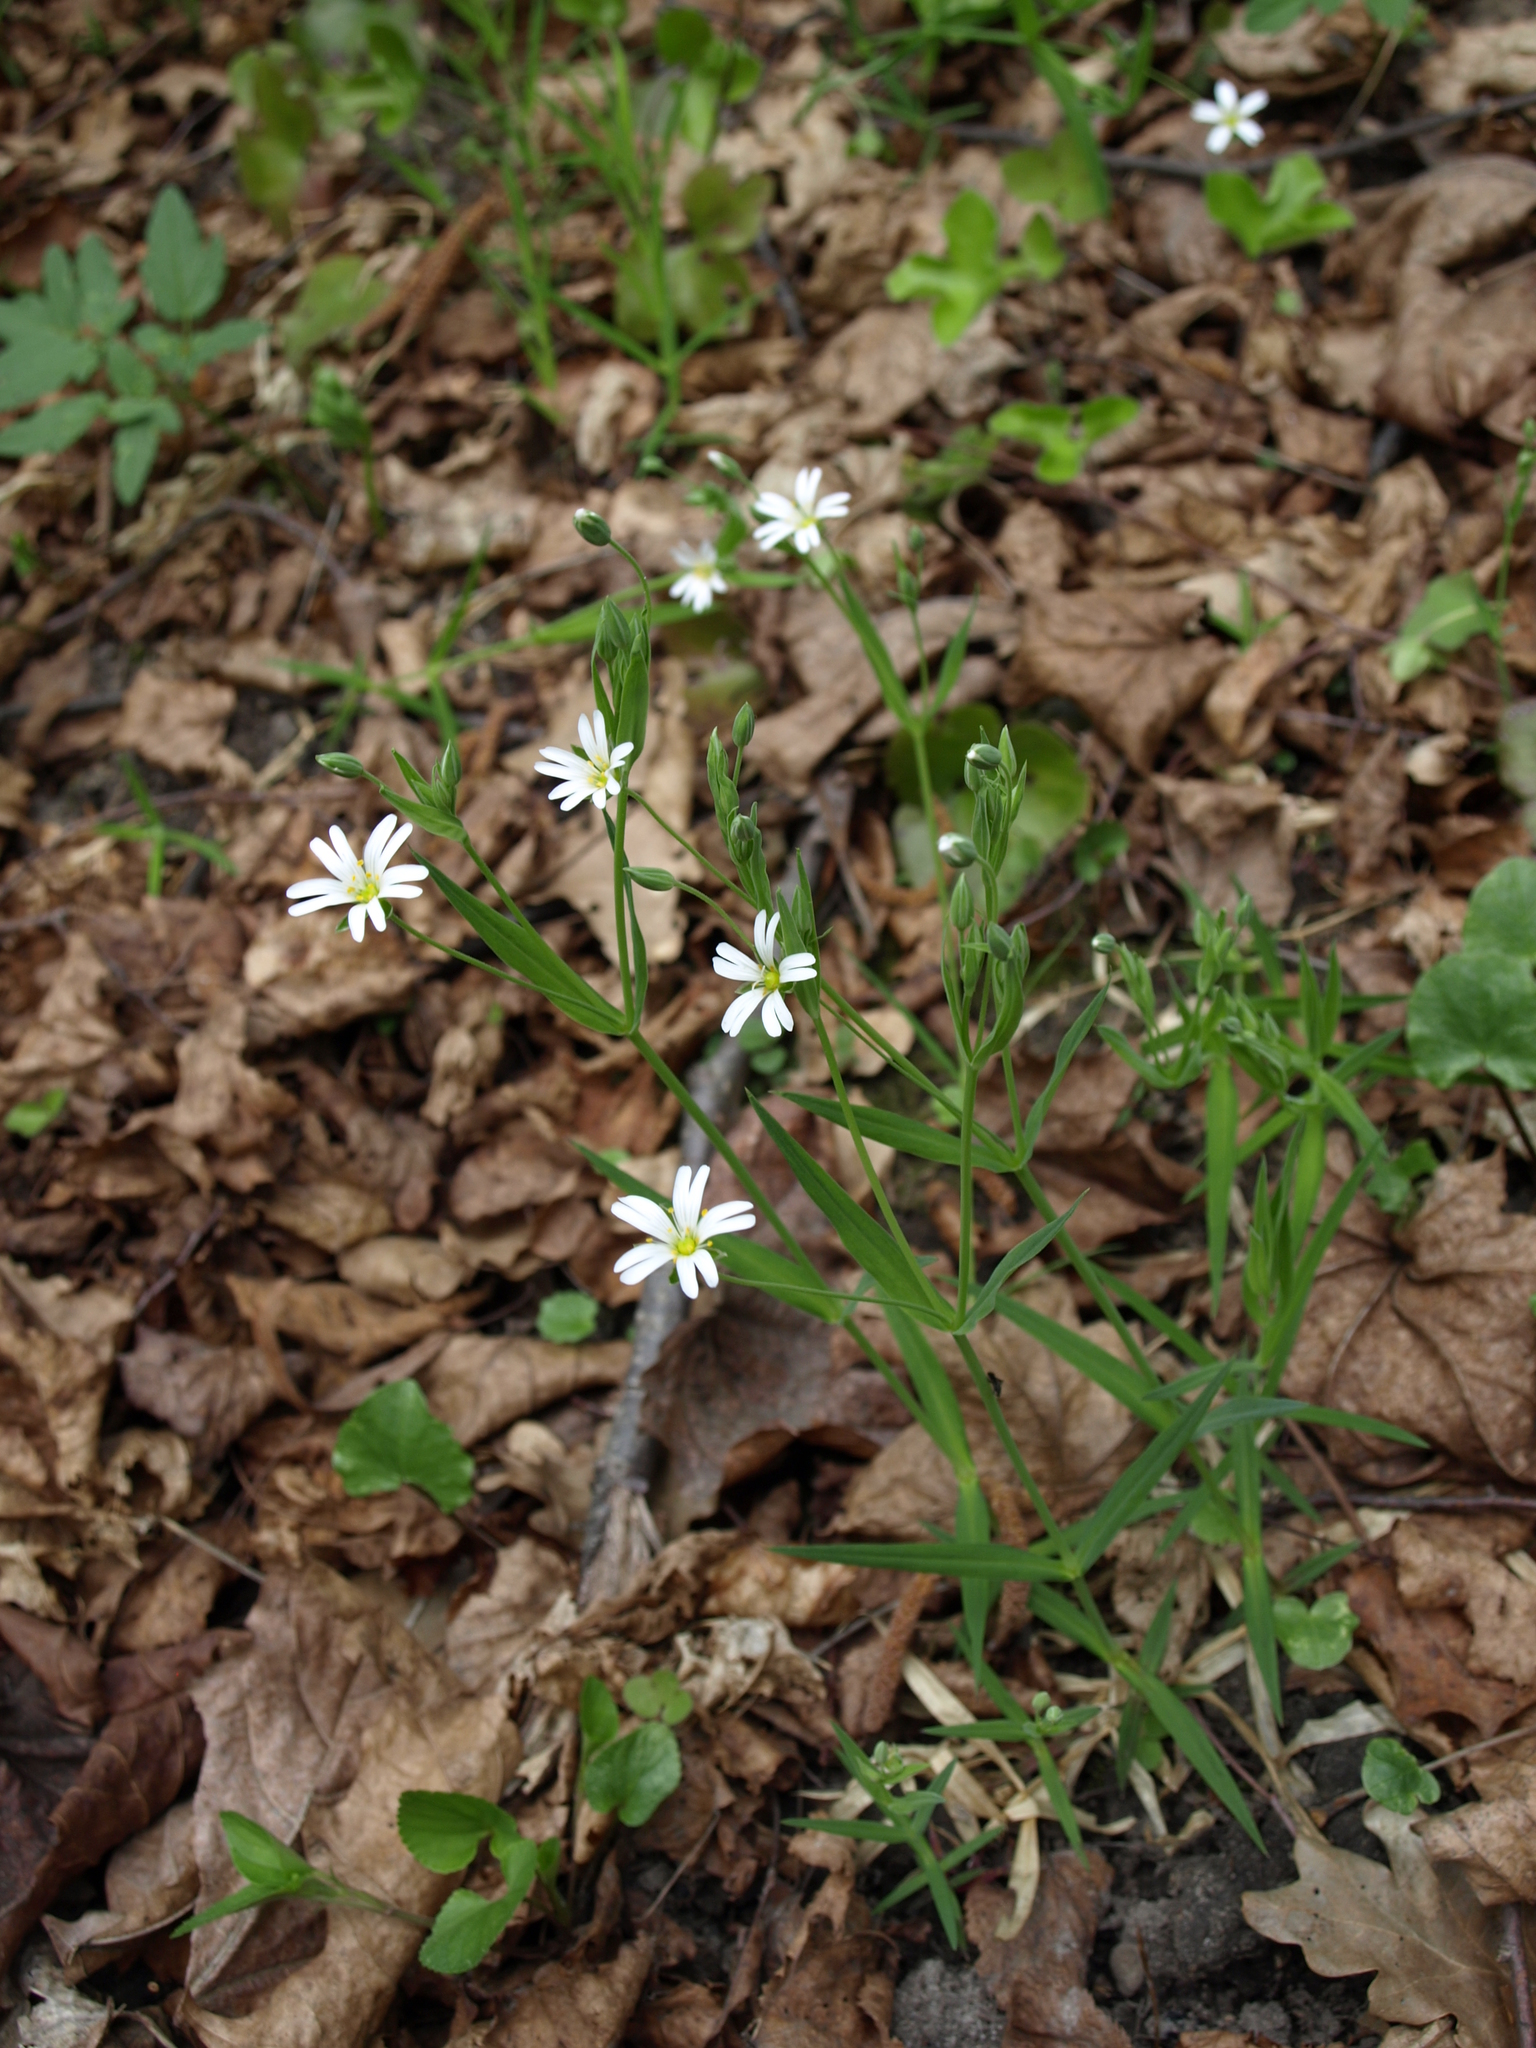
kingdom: Plantae
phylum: Tracheophyta
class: Magnoliopsida
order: Caryophyllales
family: Caryophyllaceae
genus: Rabelera
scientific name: Rabelera holostea
